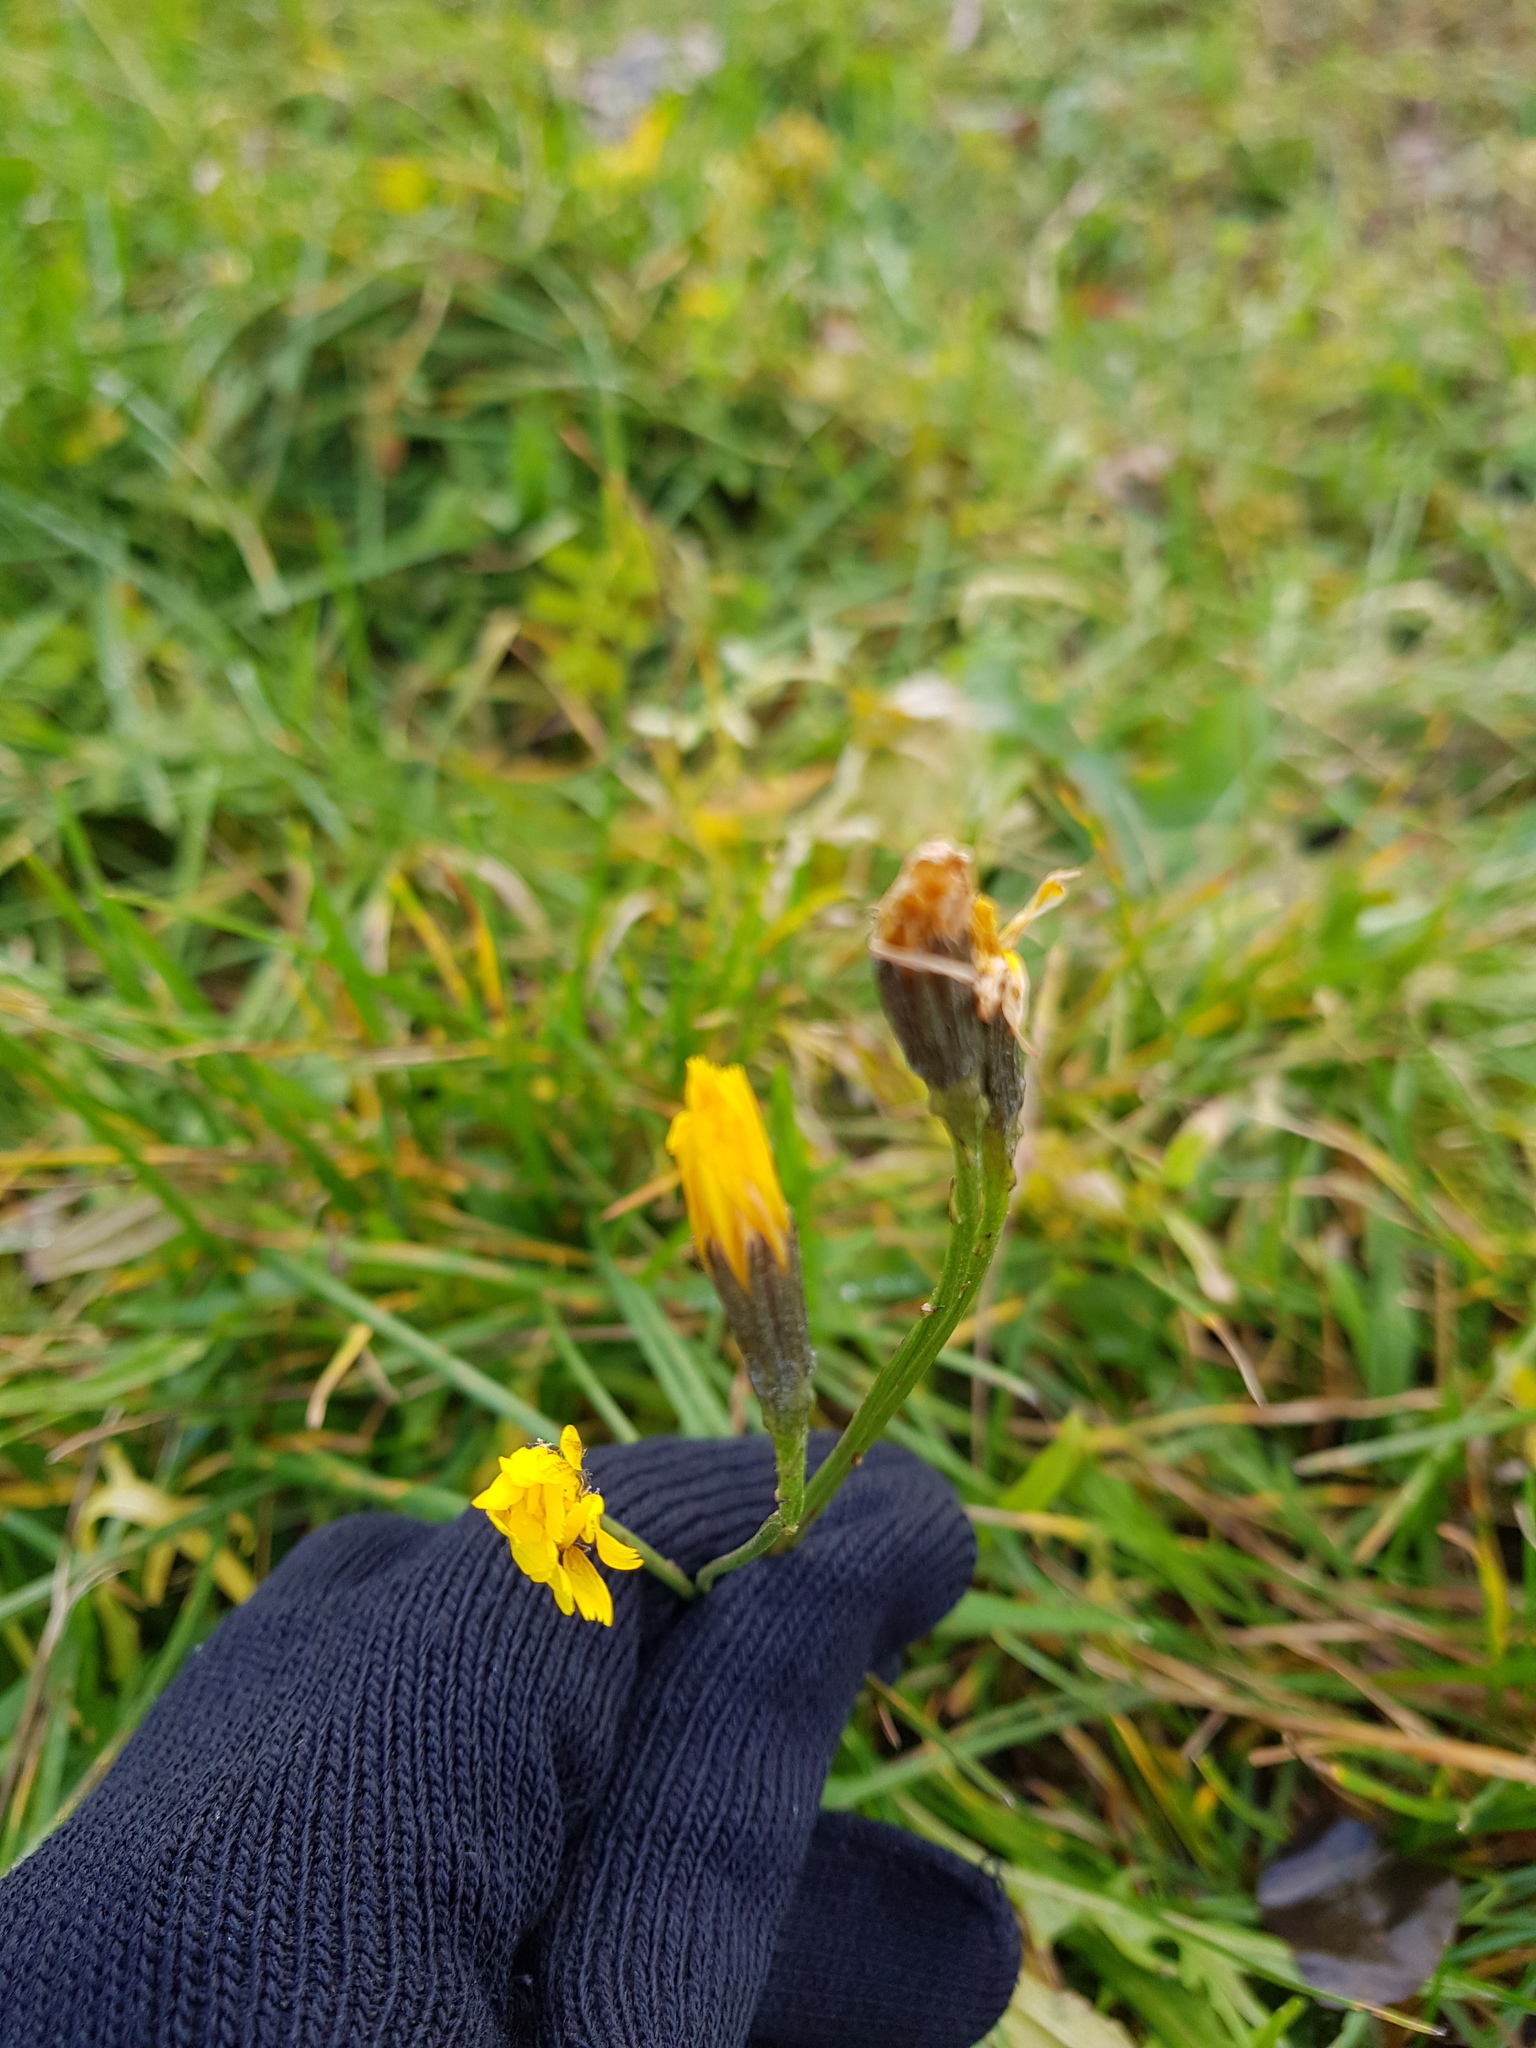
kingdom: Plantae
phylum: Tracheophyta
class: Magnoliopsida
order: Asterales
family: Asteraceae
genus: Scorzoneroides
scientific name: Scorzoneroides autumnalis
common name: Autumn hawkbit
